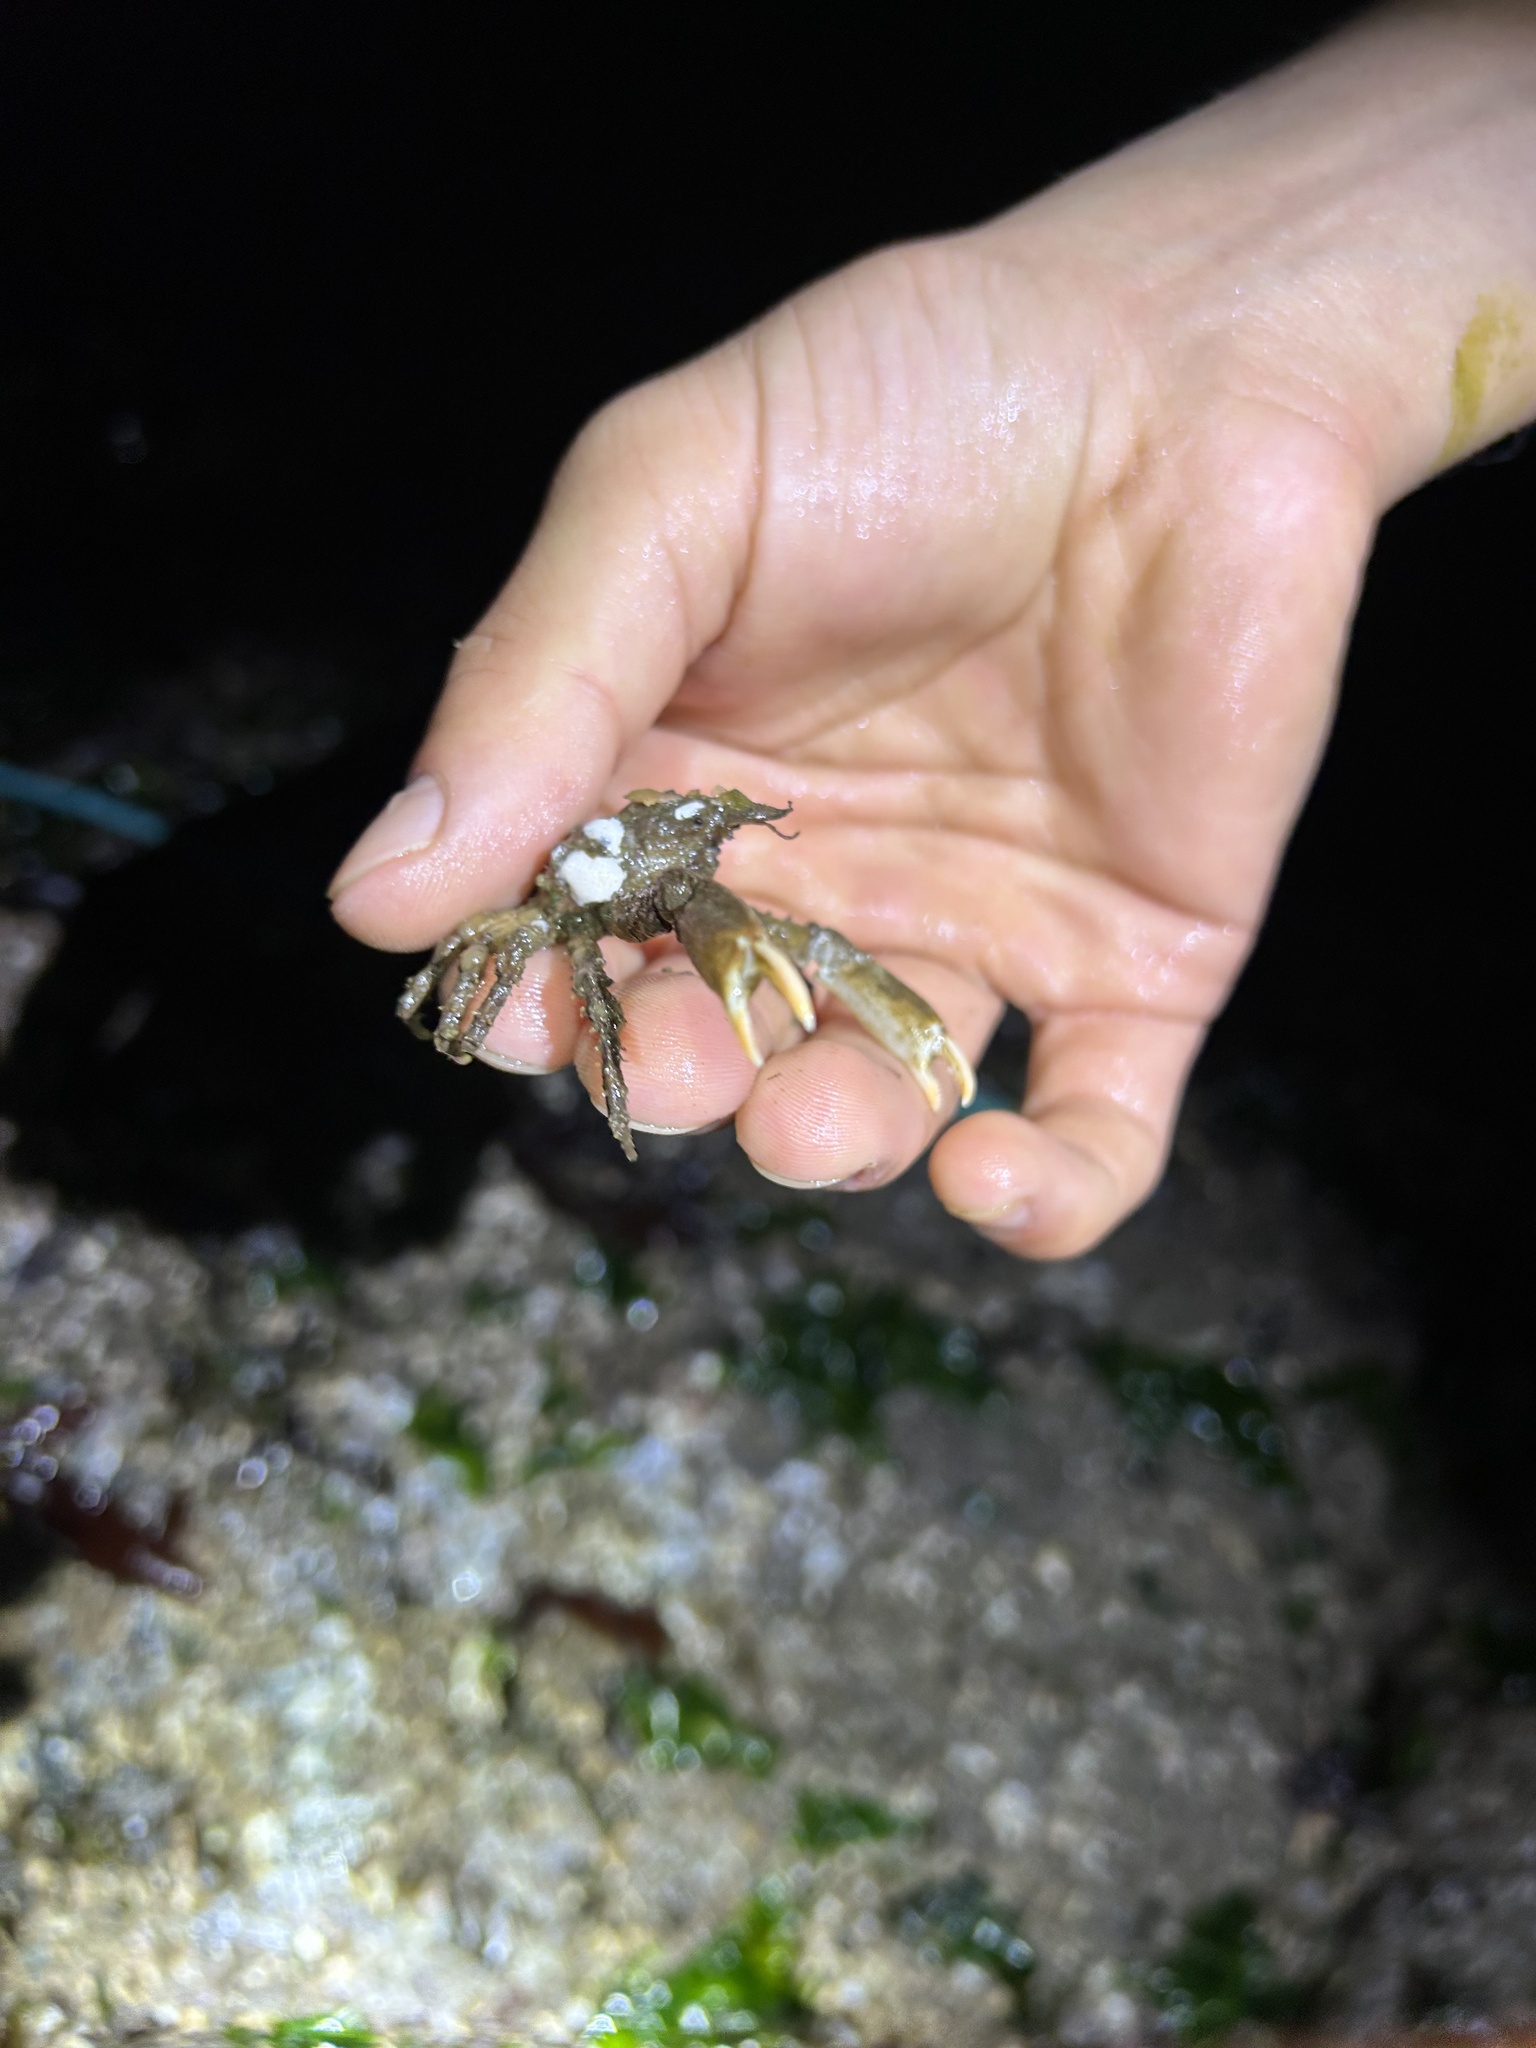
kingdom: Animalia
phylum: Arthropoda
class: Malacostraca
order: Decapoda
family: Epialtidae
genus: Scyra
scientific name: Scyra acutifrons
